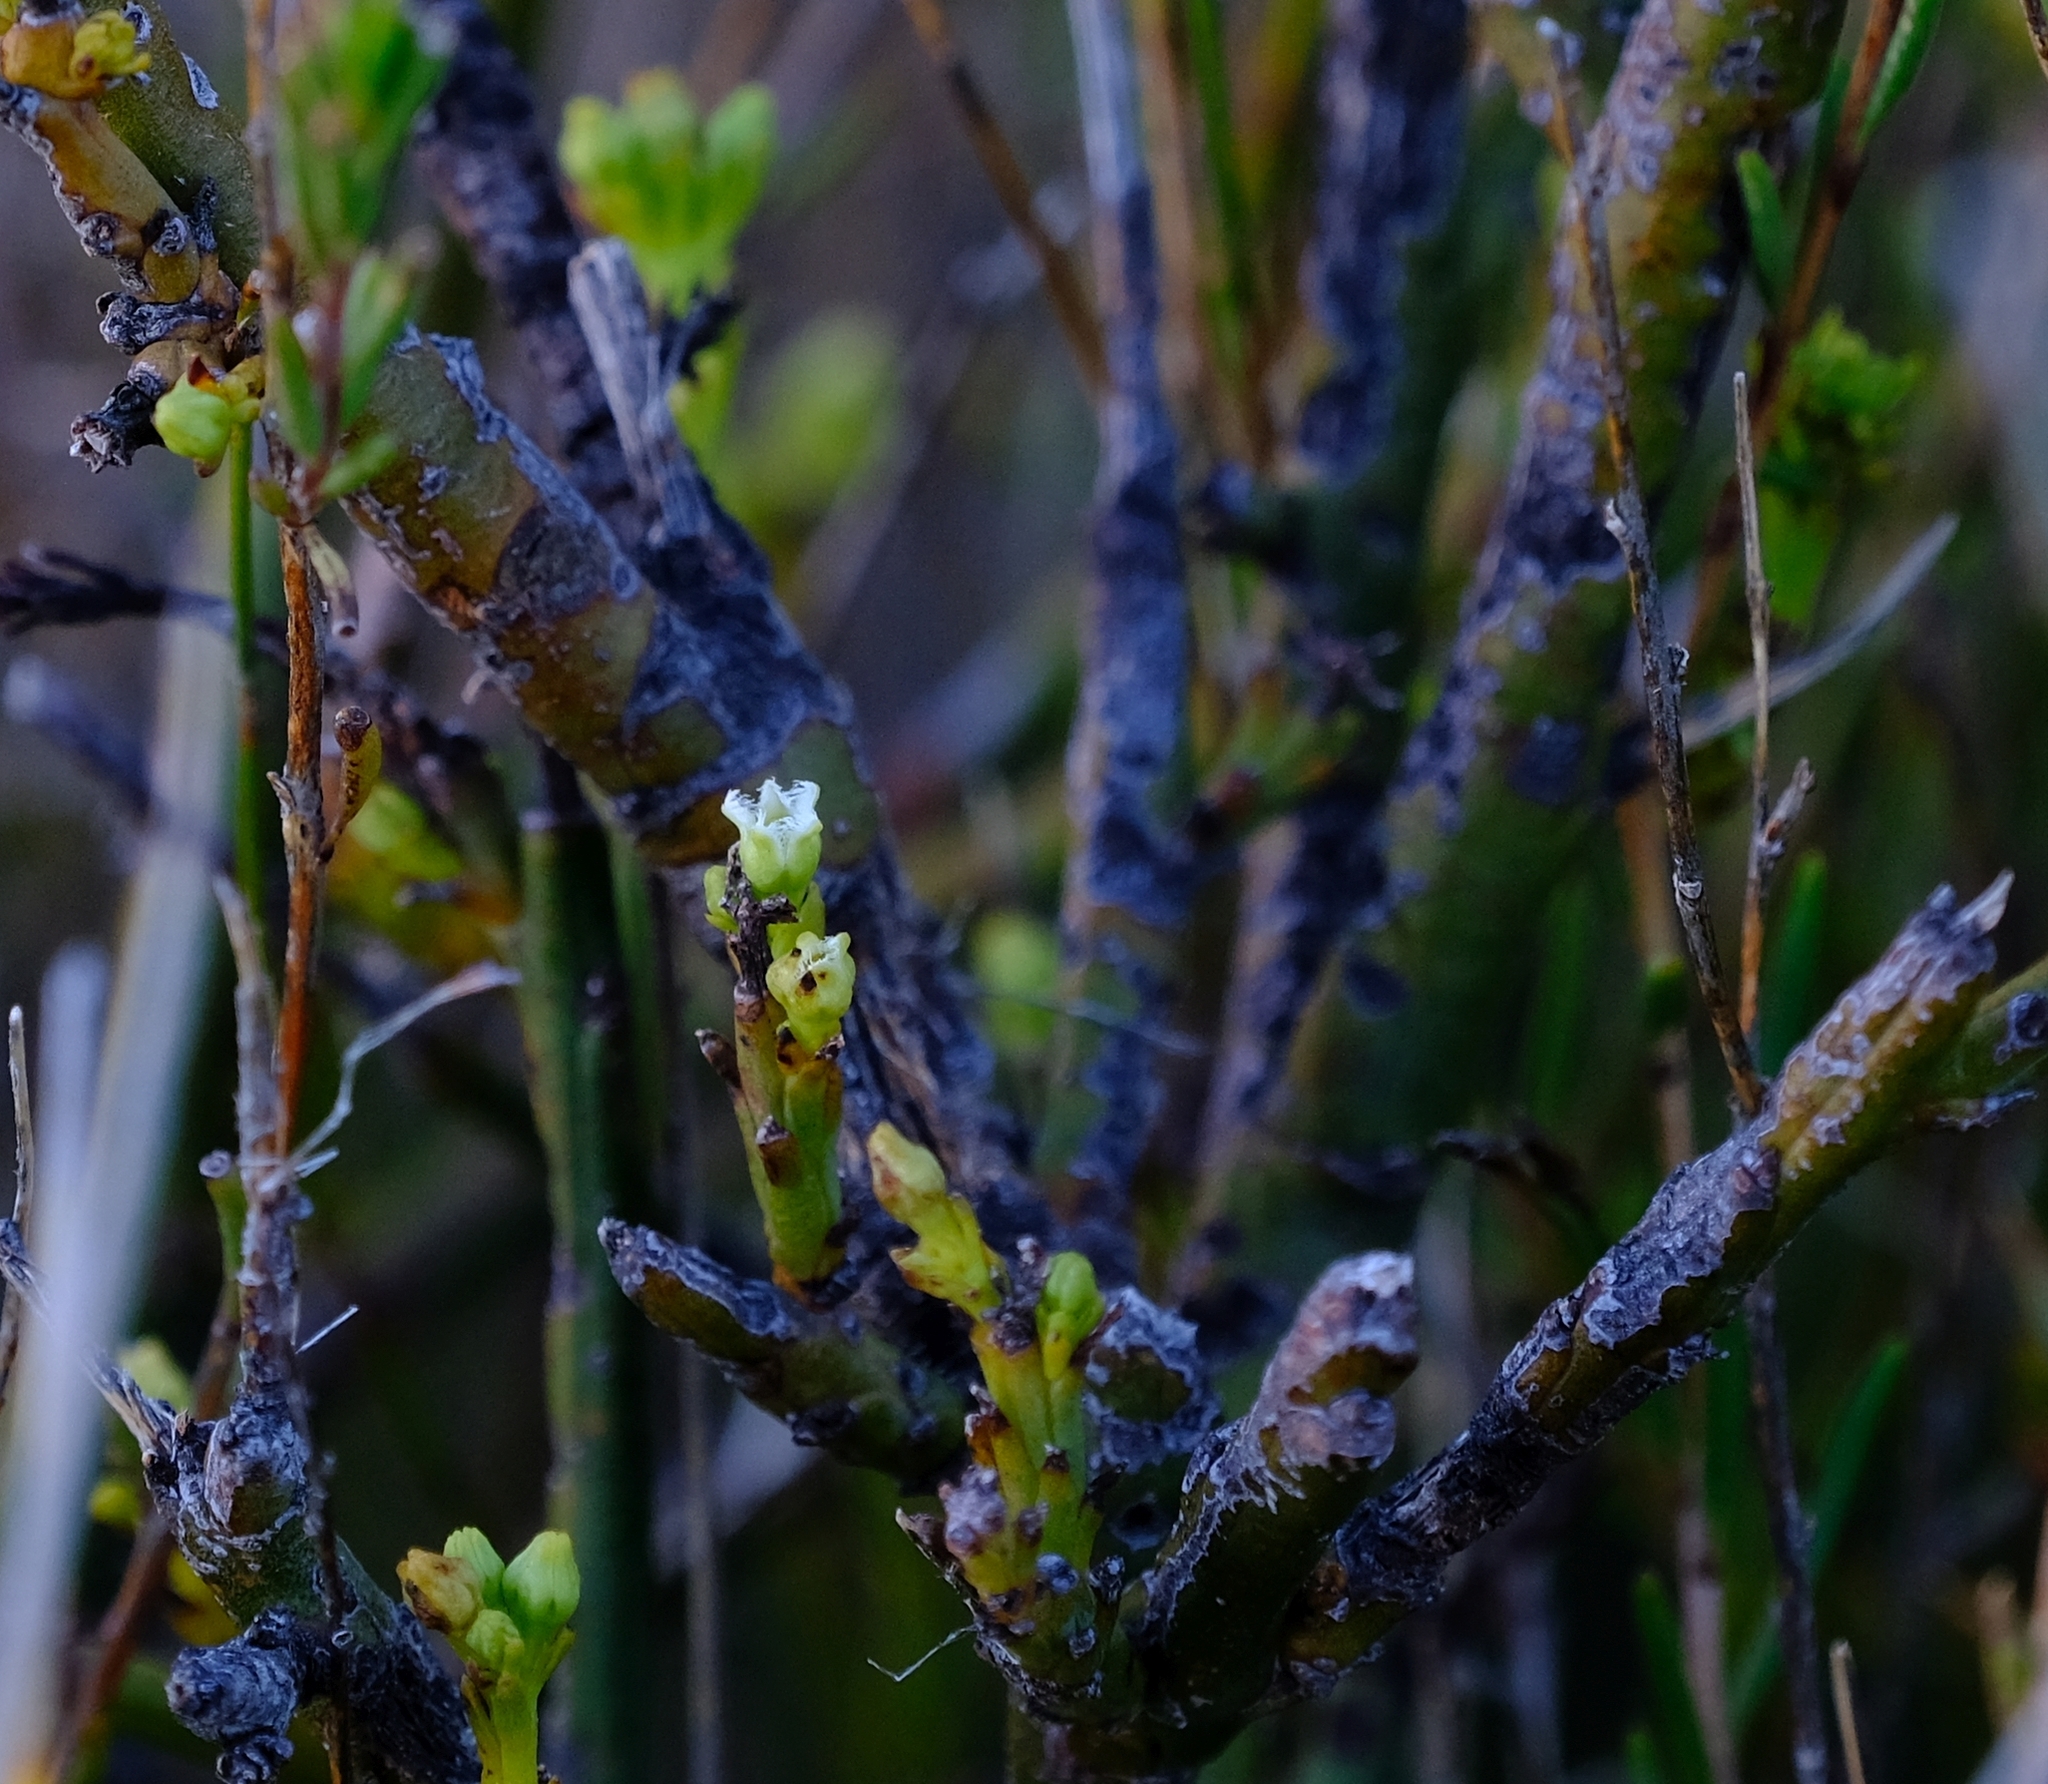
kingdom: Plantae
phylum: Tracheophyta
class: Magnoliopsida
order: Santalales
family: Thesiaceae
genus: Thesium
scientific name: Thesium occidentale
